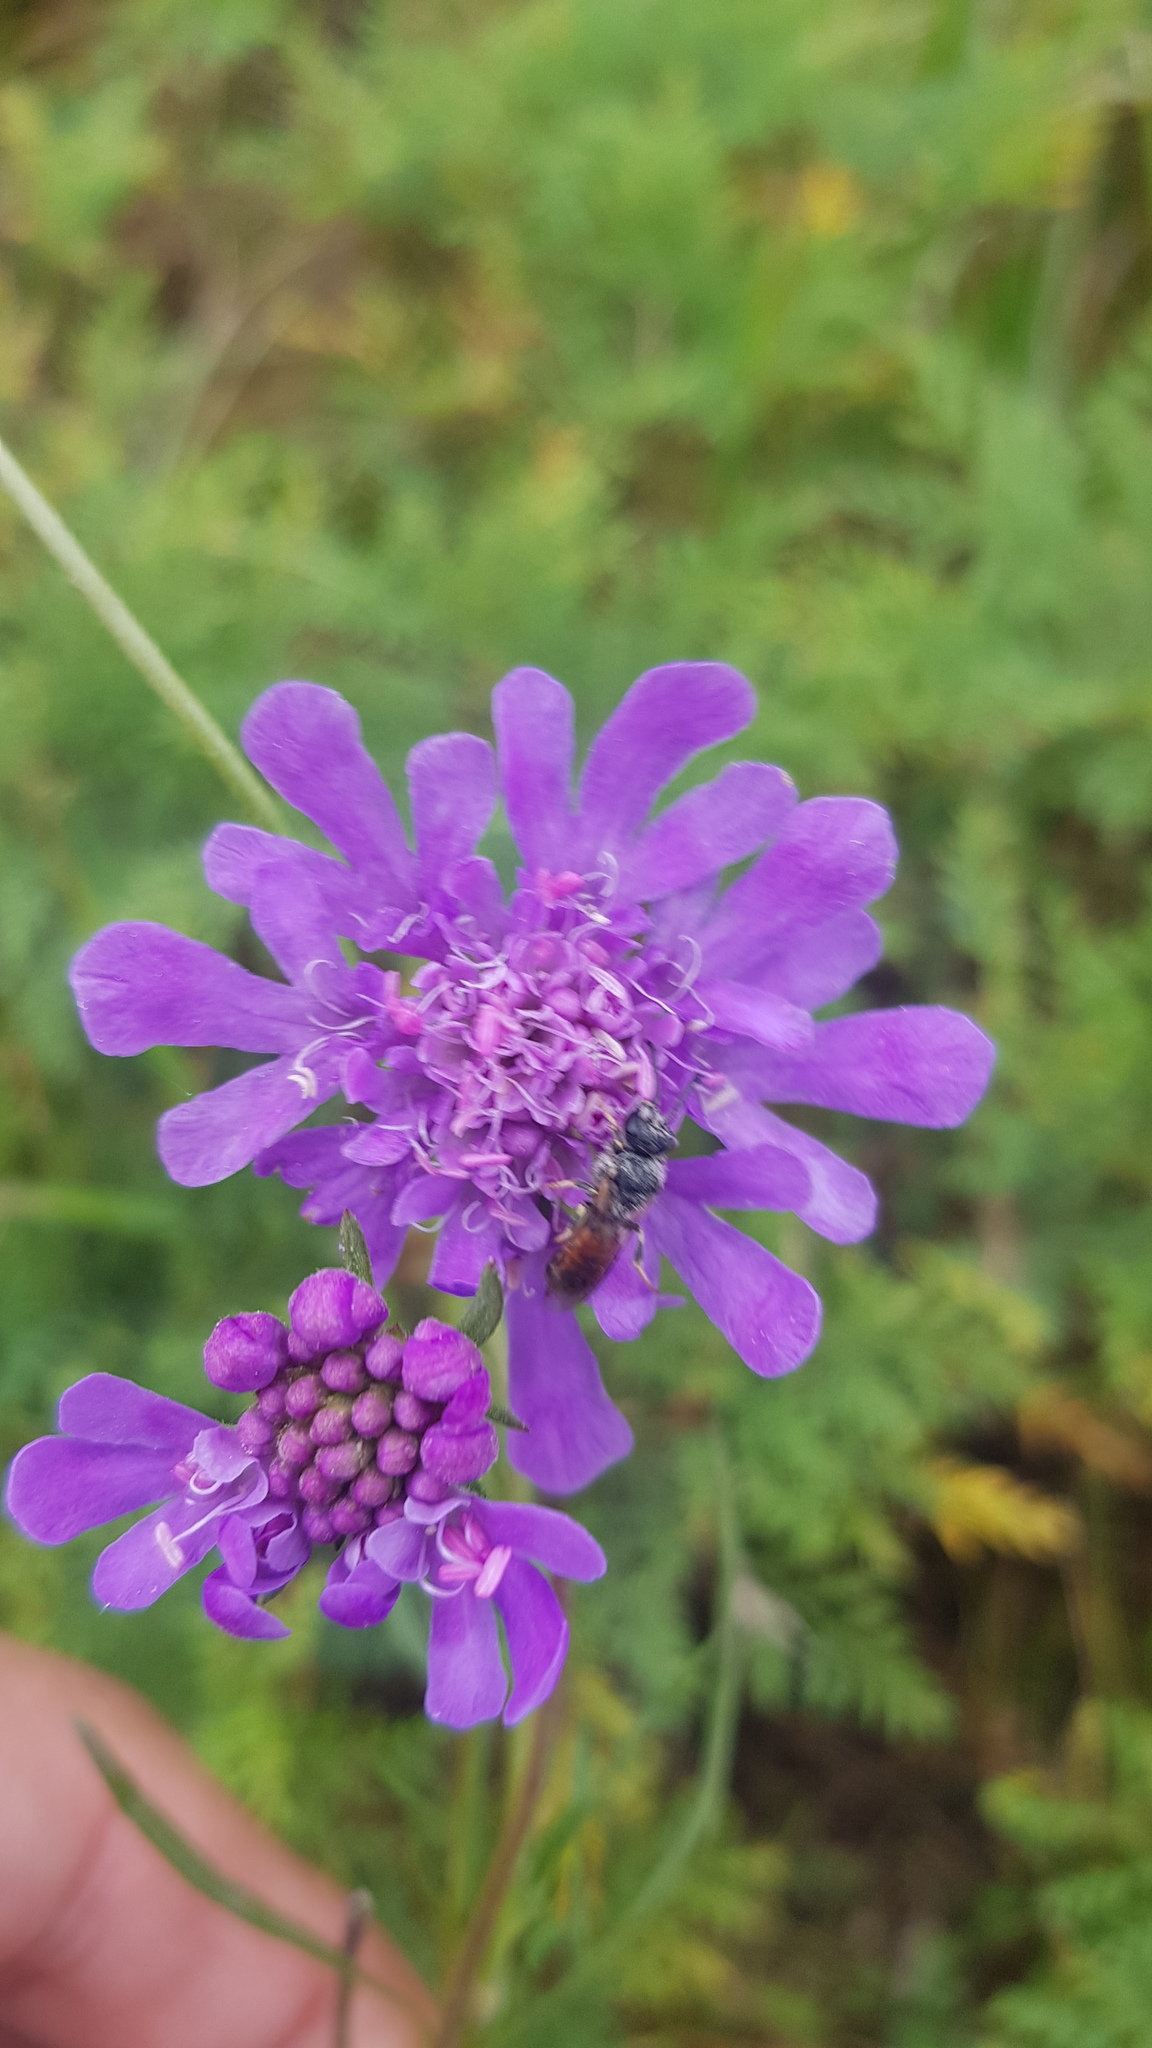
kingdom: Plantae
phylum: Tracheophyta
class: Magnoliopsida
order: Dipsacales
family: Caprifoliaceae
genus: Scabiosa
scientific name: Scabiosa comosa
